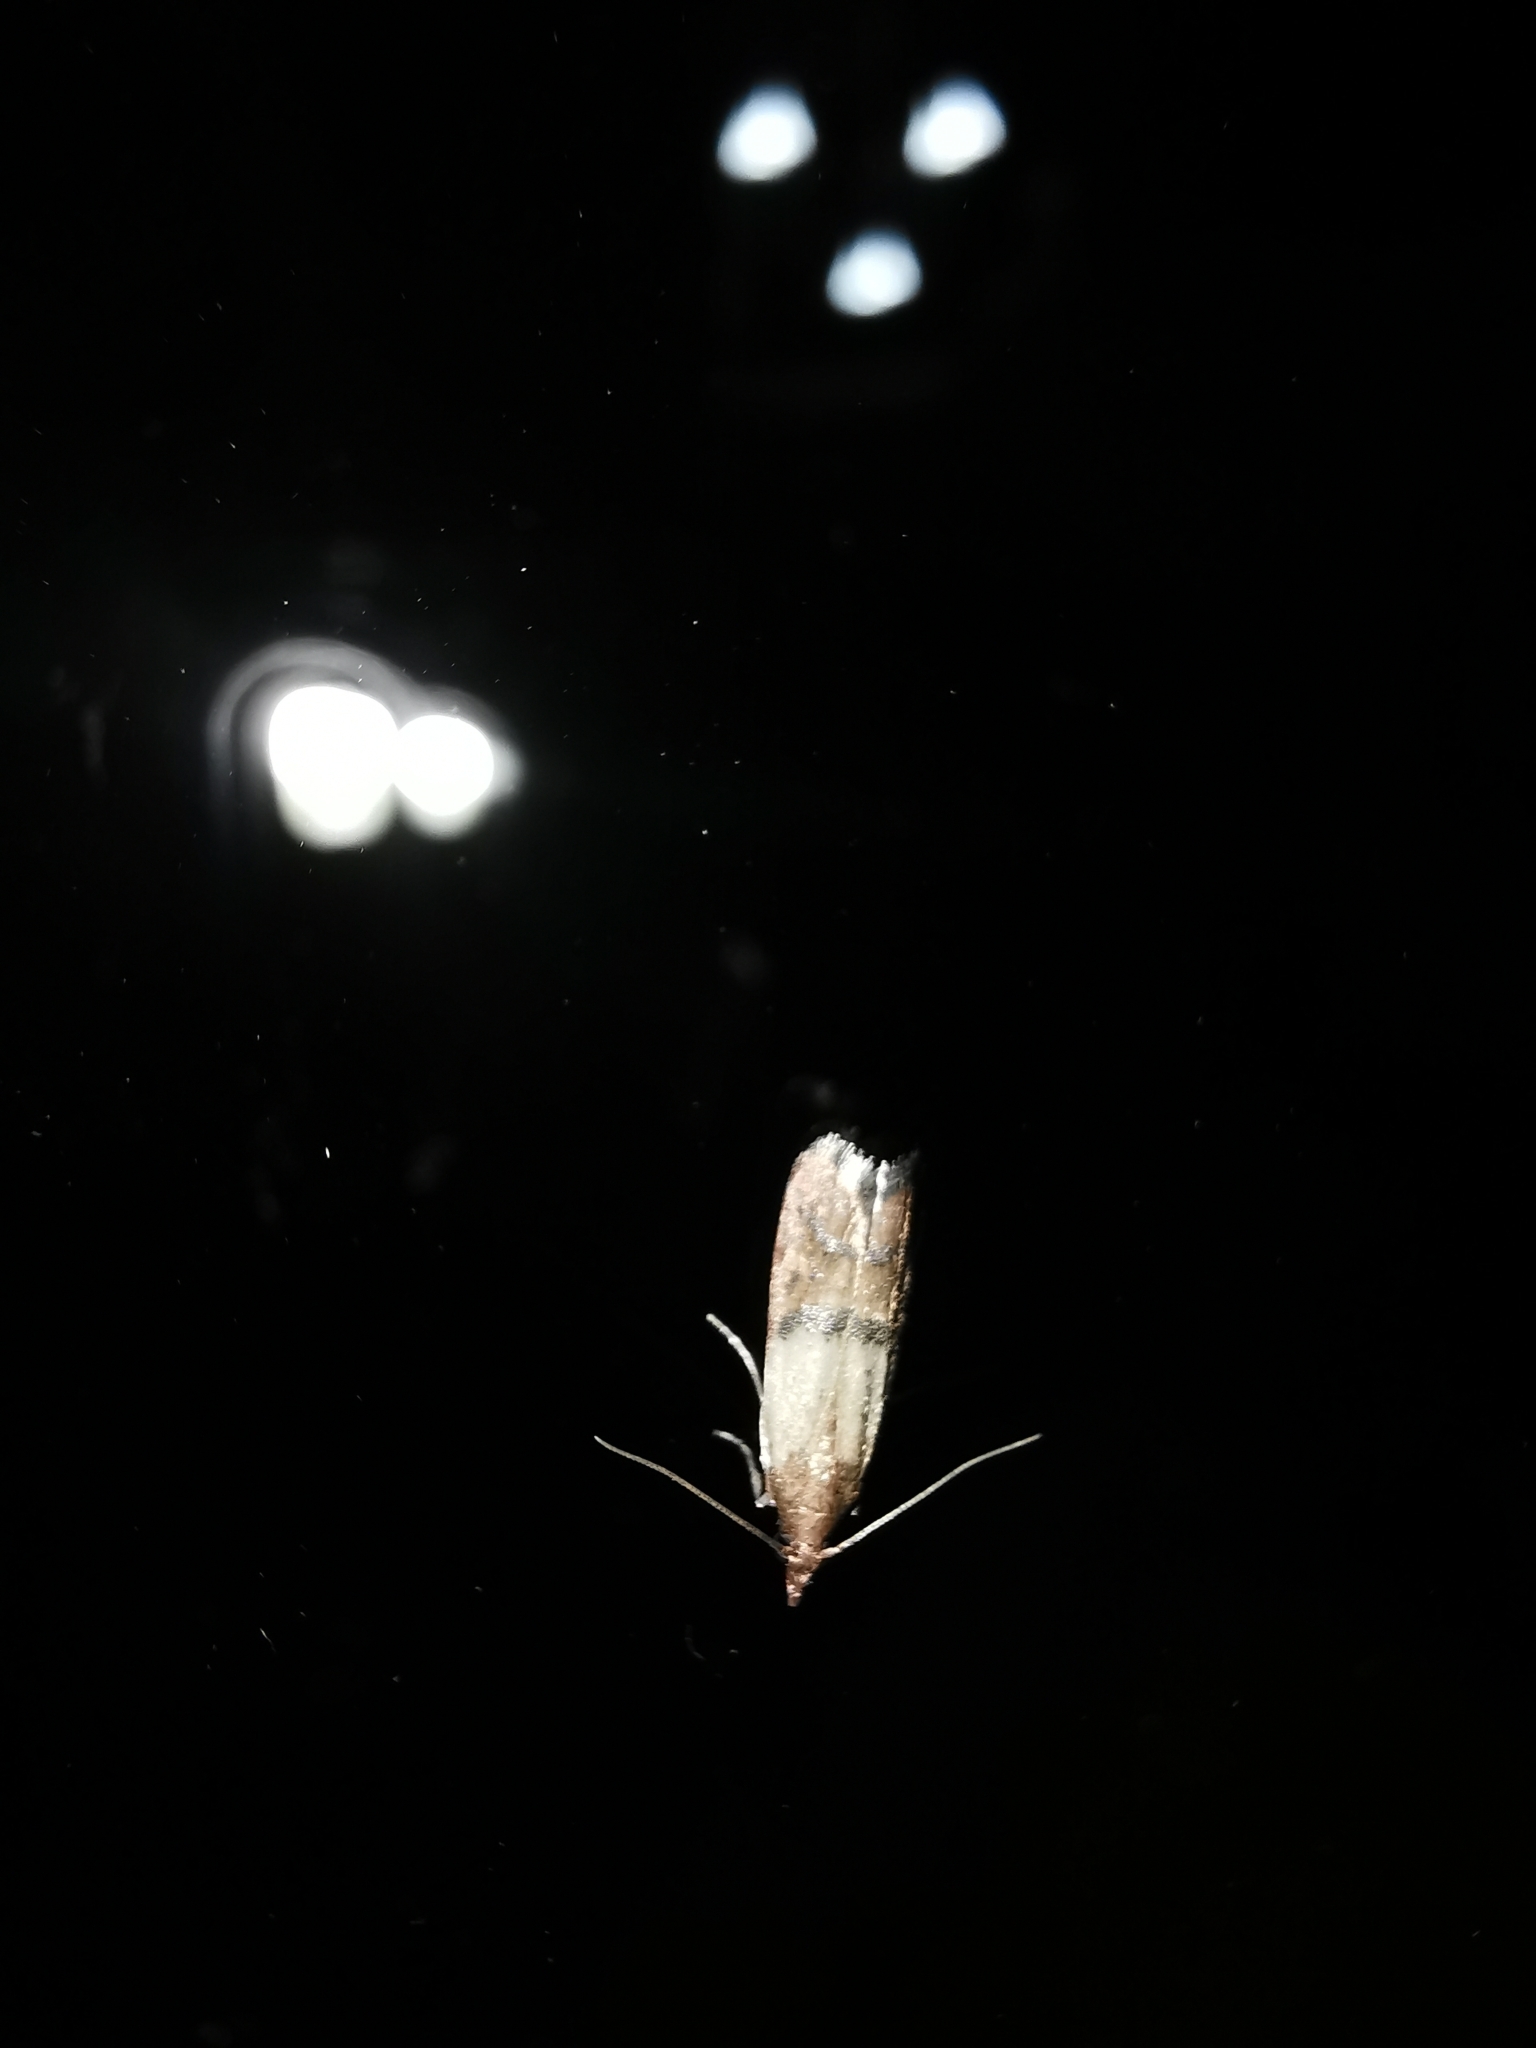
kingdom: Animalia
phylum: Arthropoda
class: Insecta
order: Lepidoptera
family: Pyralidae
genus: Plodia
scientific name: Plodia interpunctella
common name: Indian meal moth
